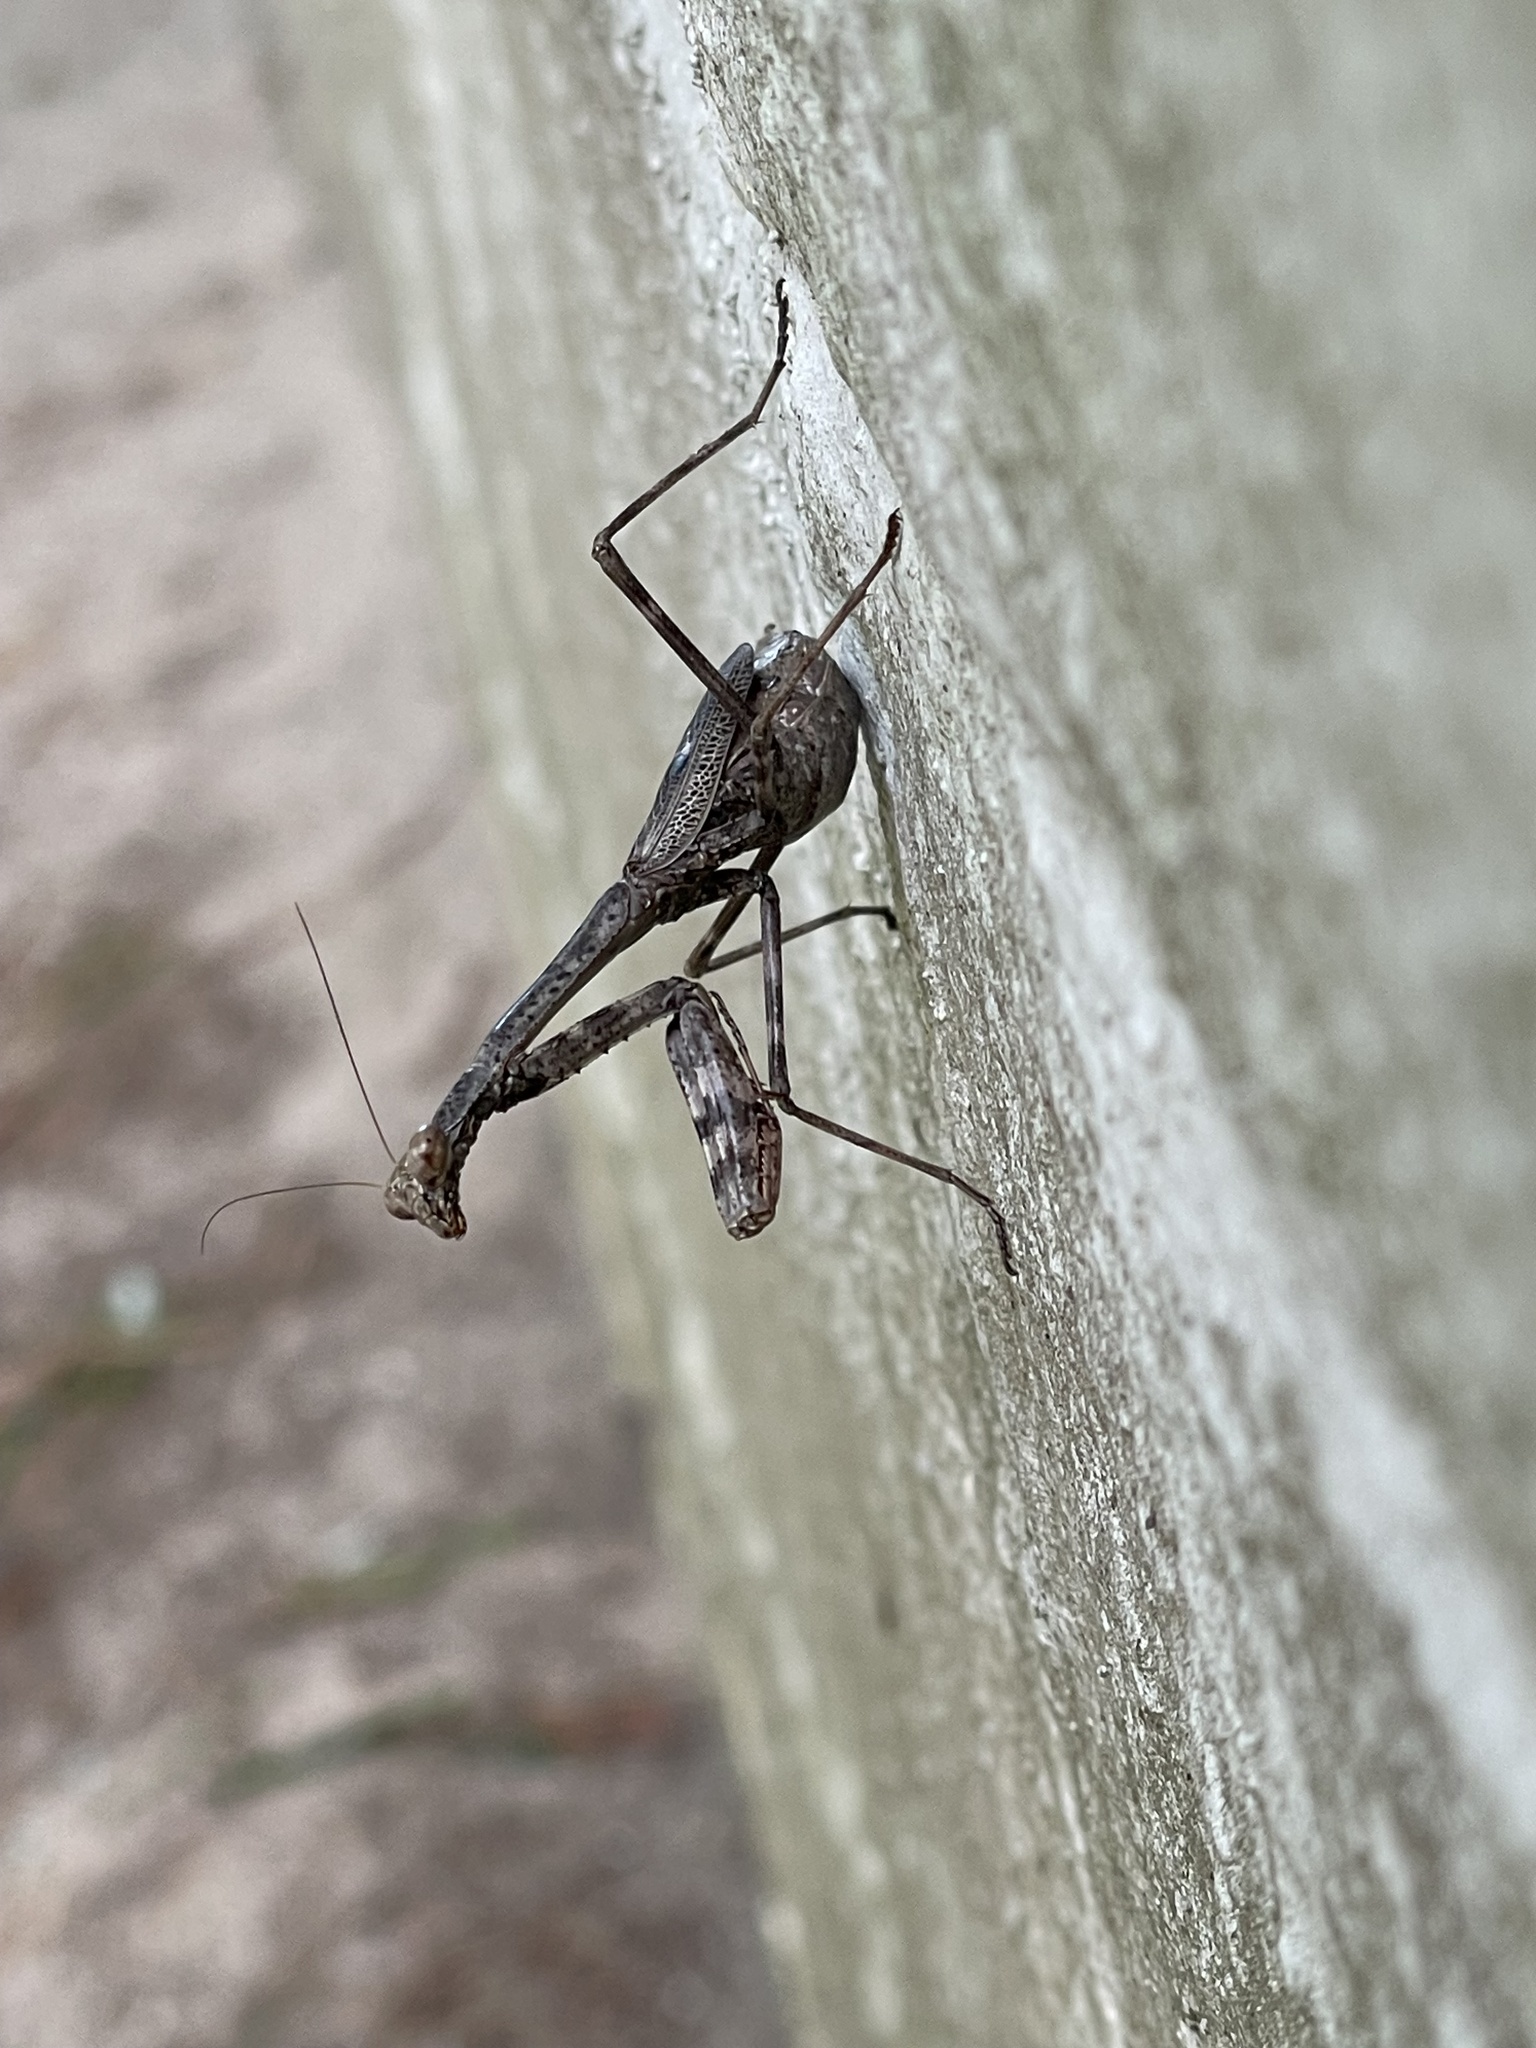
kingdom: Animalia
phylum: Arthropoda
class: Insecta
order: Mantodea
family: Mantidae
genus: Stagmomantis
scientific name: Stagmomantis carolina
